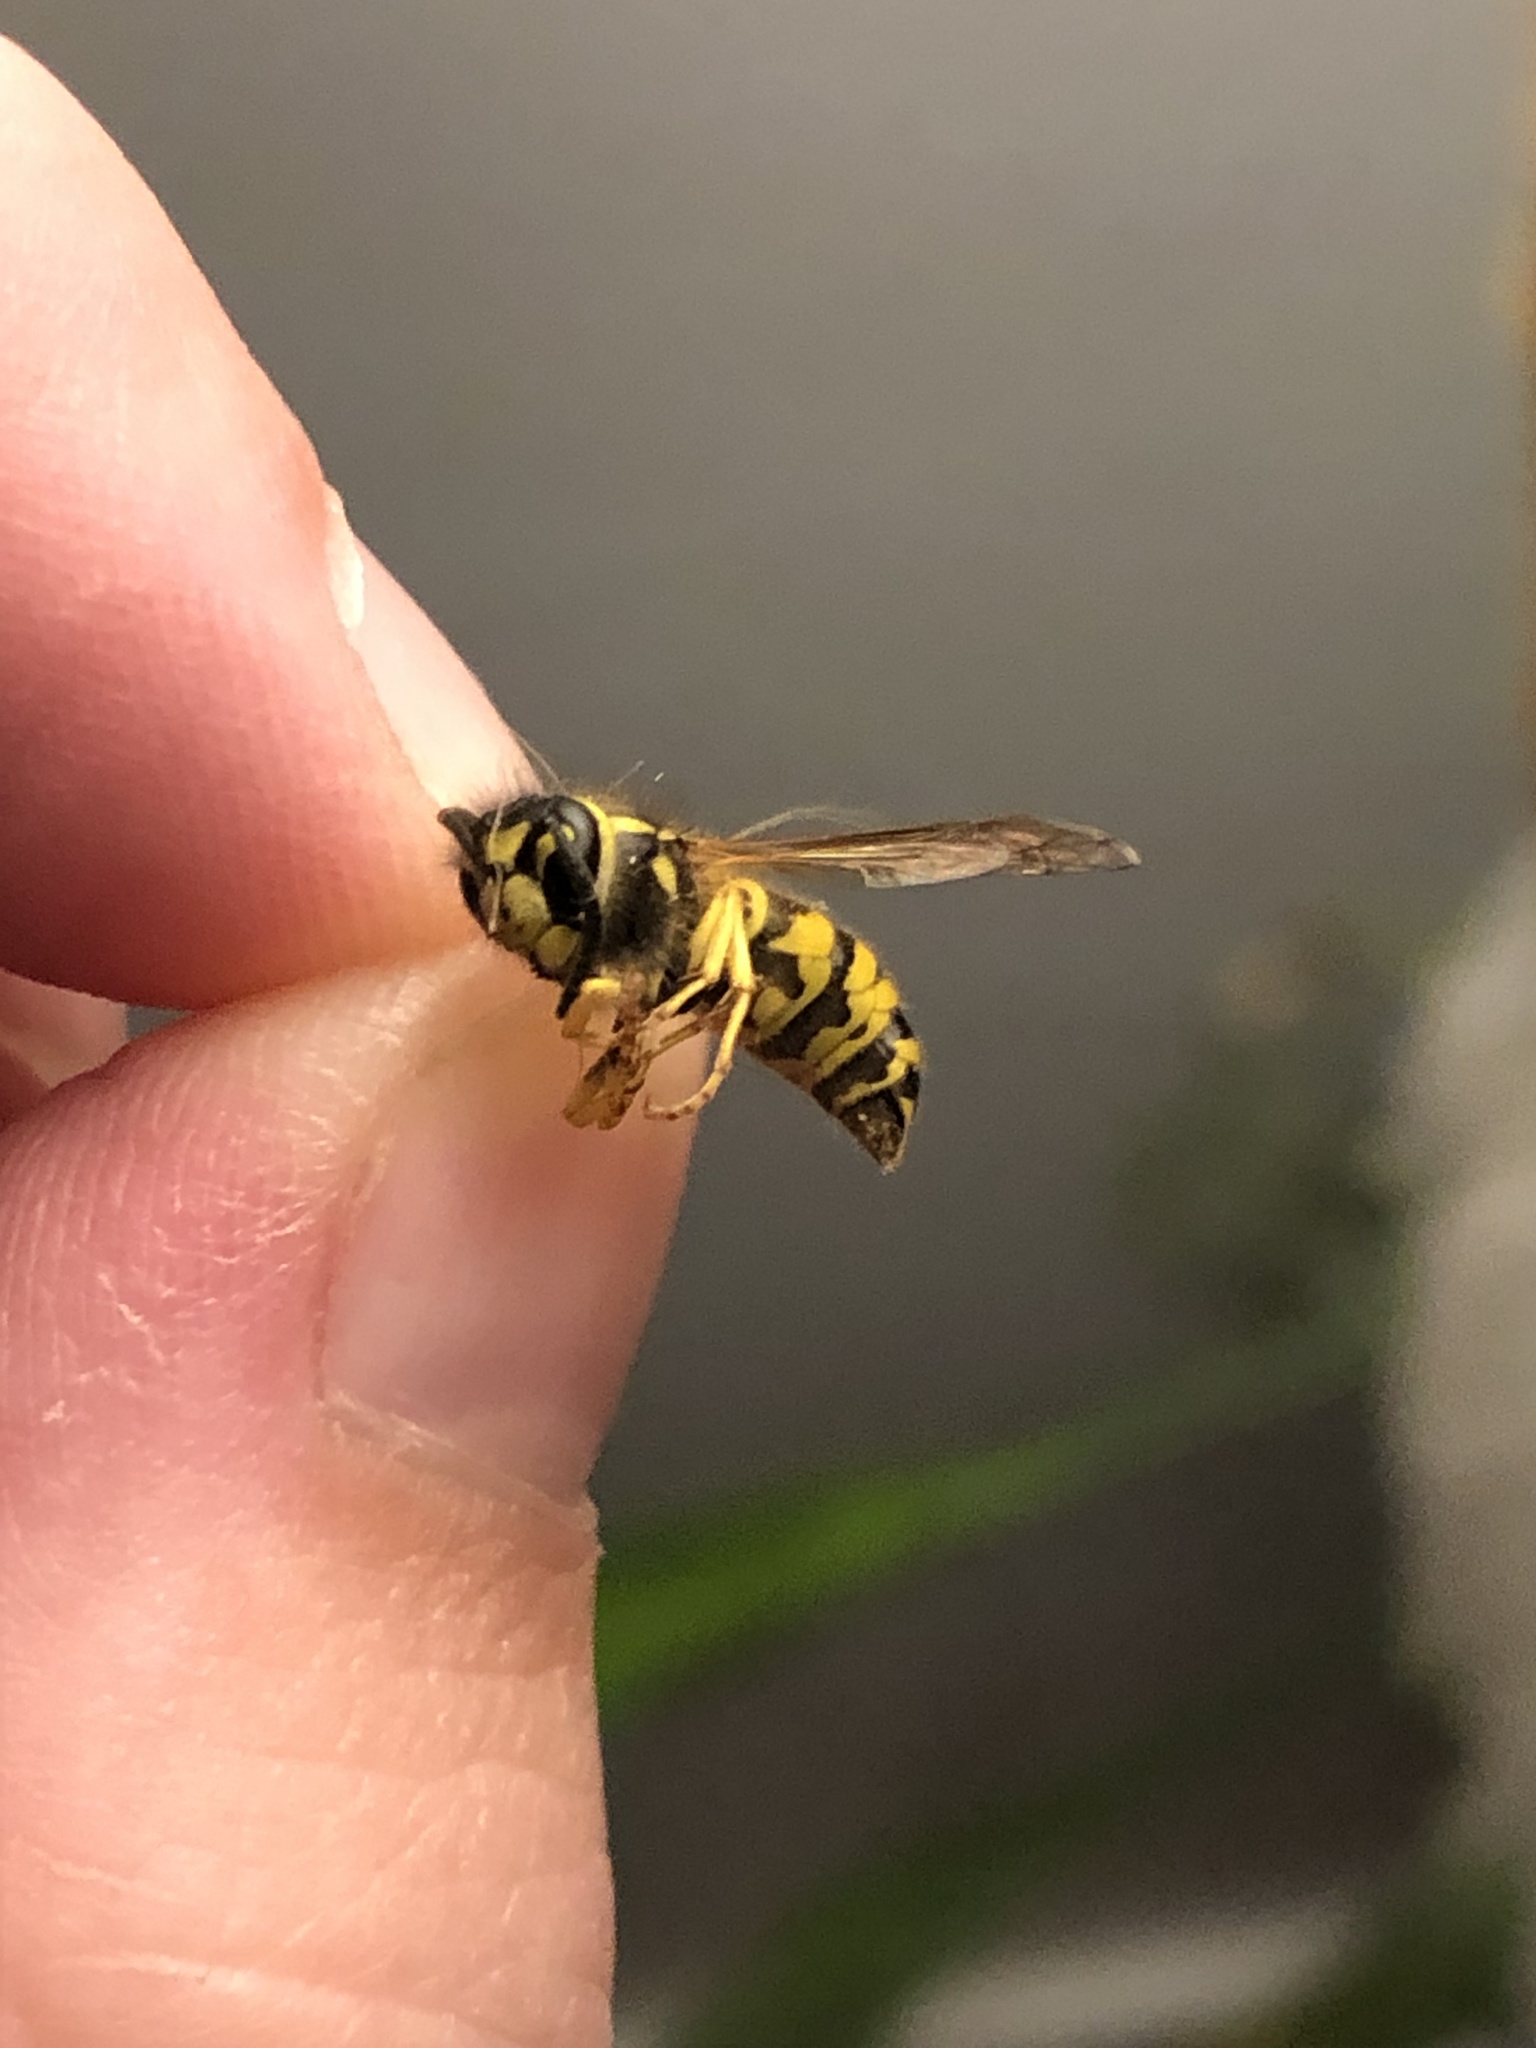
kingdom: Animalia
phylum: Arthropoda
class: Insecta
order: Hymenoptera
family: Vespidae
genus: Vespula
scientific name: Vespula
